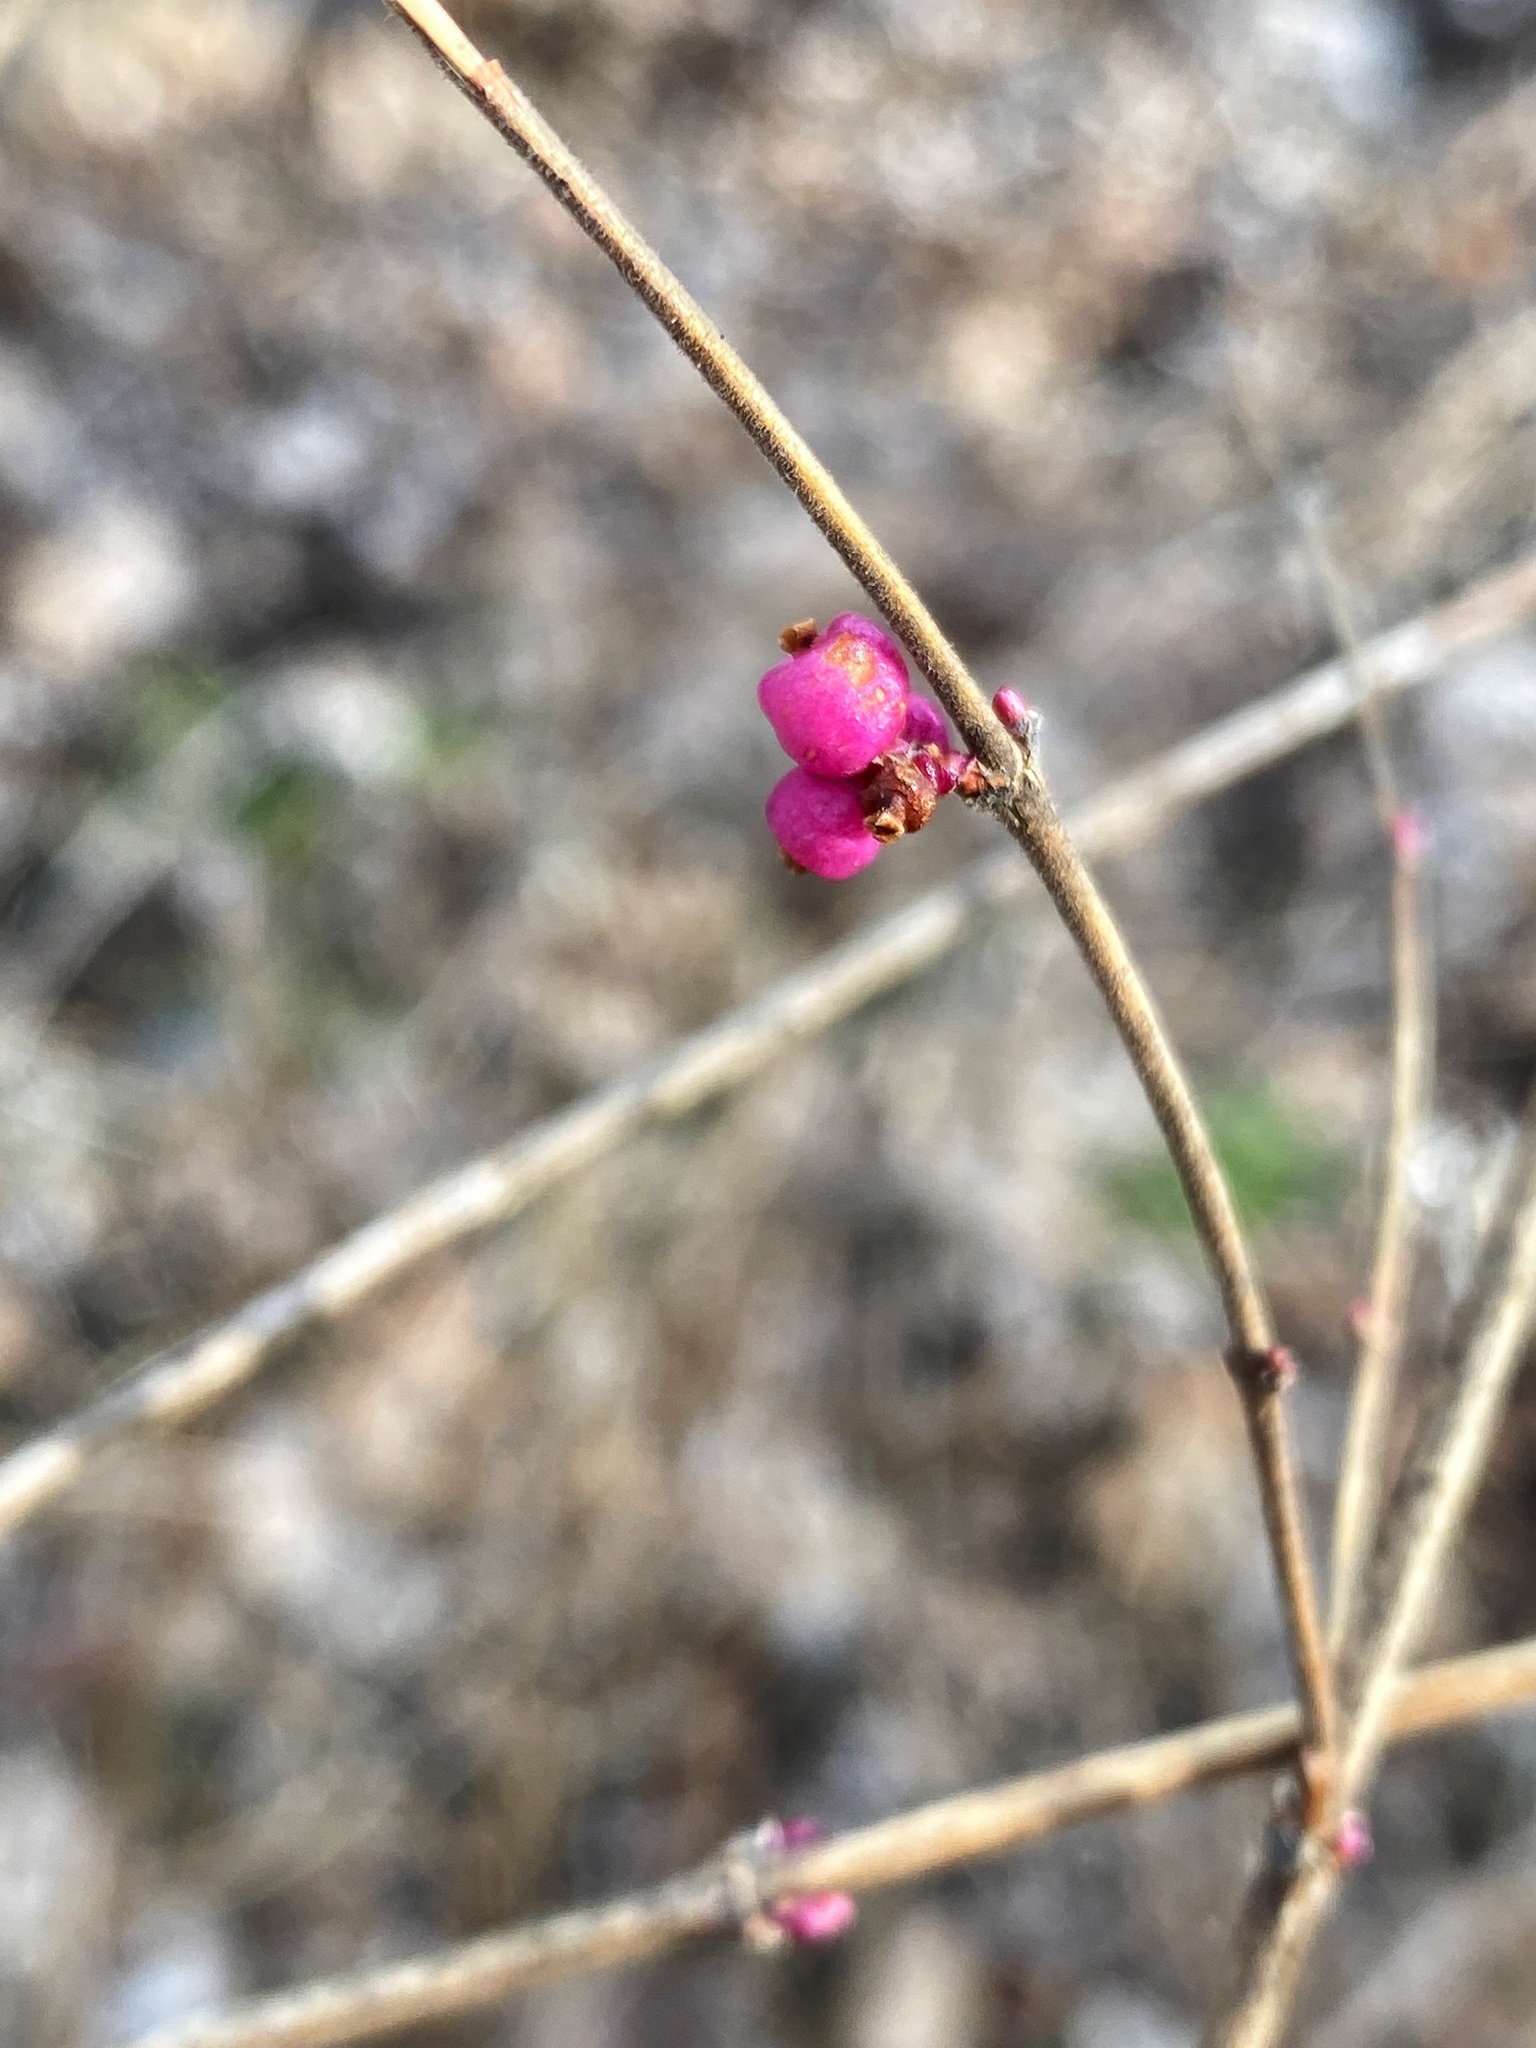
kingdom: Plantae
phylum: Tracheophyta
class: Magnoliopsida
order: Dipsacales
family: Caprifoliaceae
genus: Symphoricarpos
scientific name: Symphoricarpos orbiculatus
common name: Coralberry
